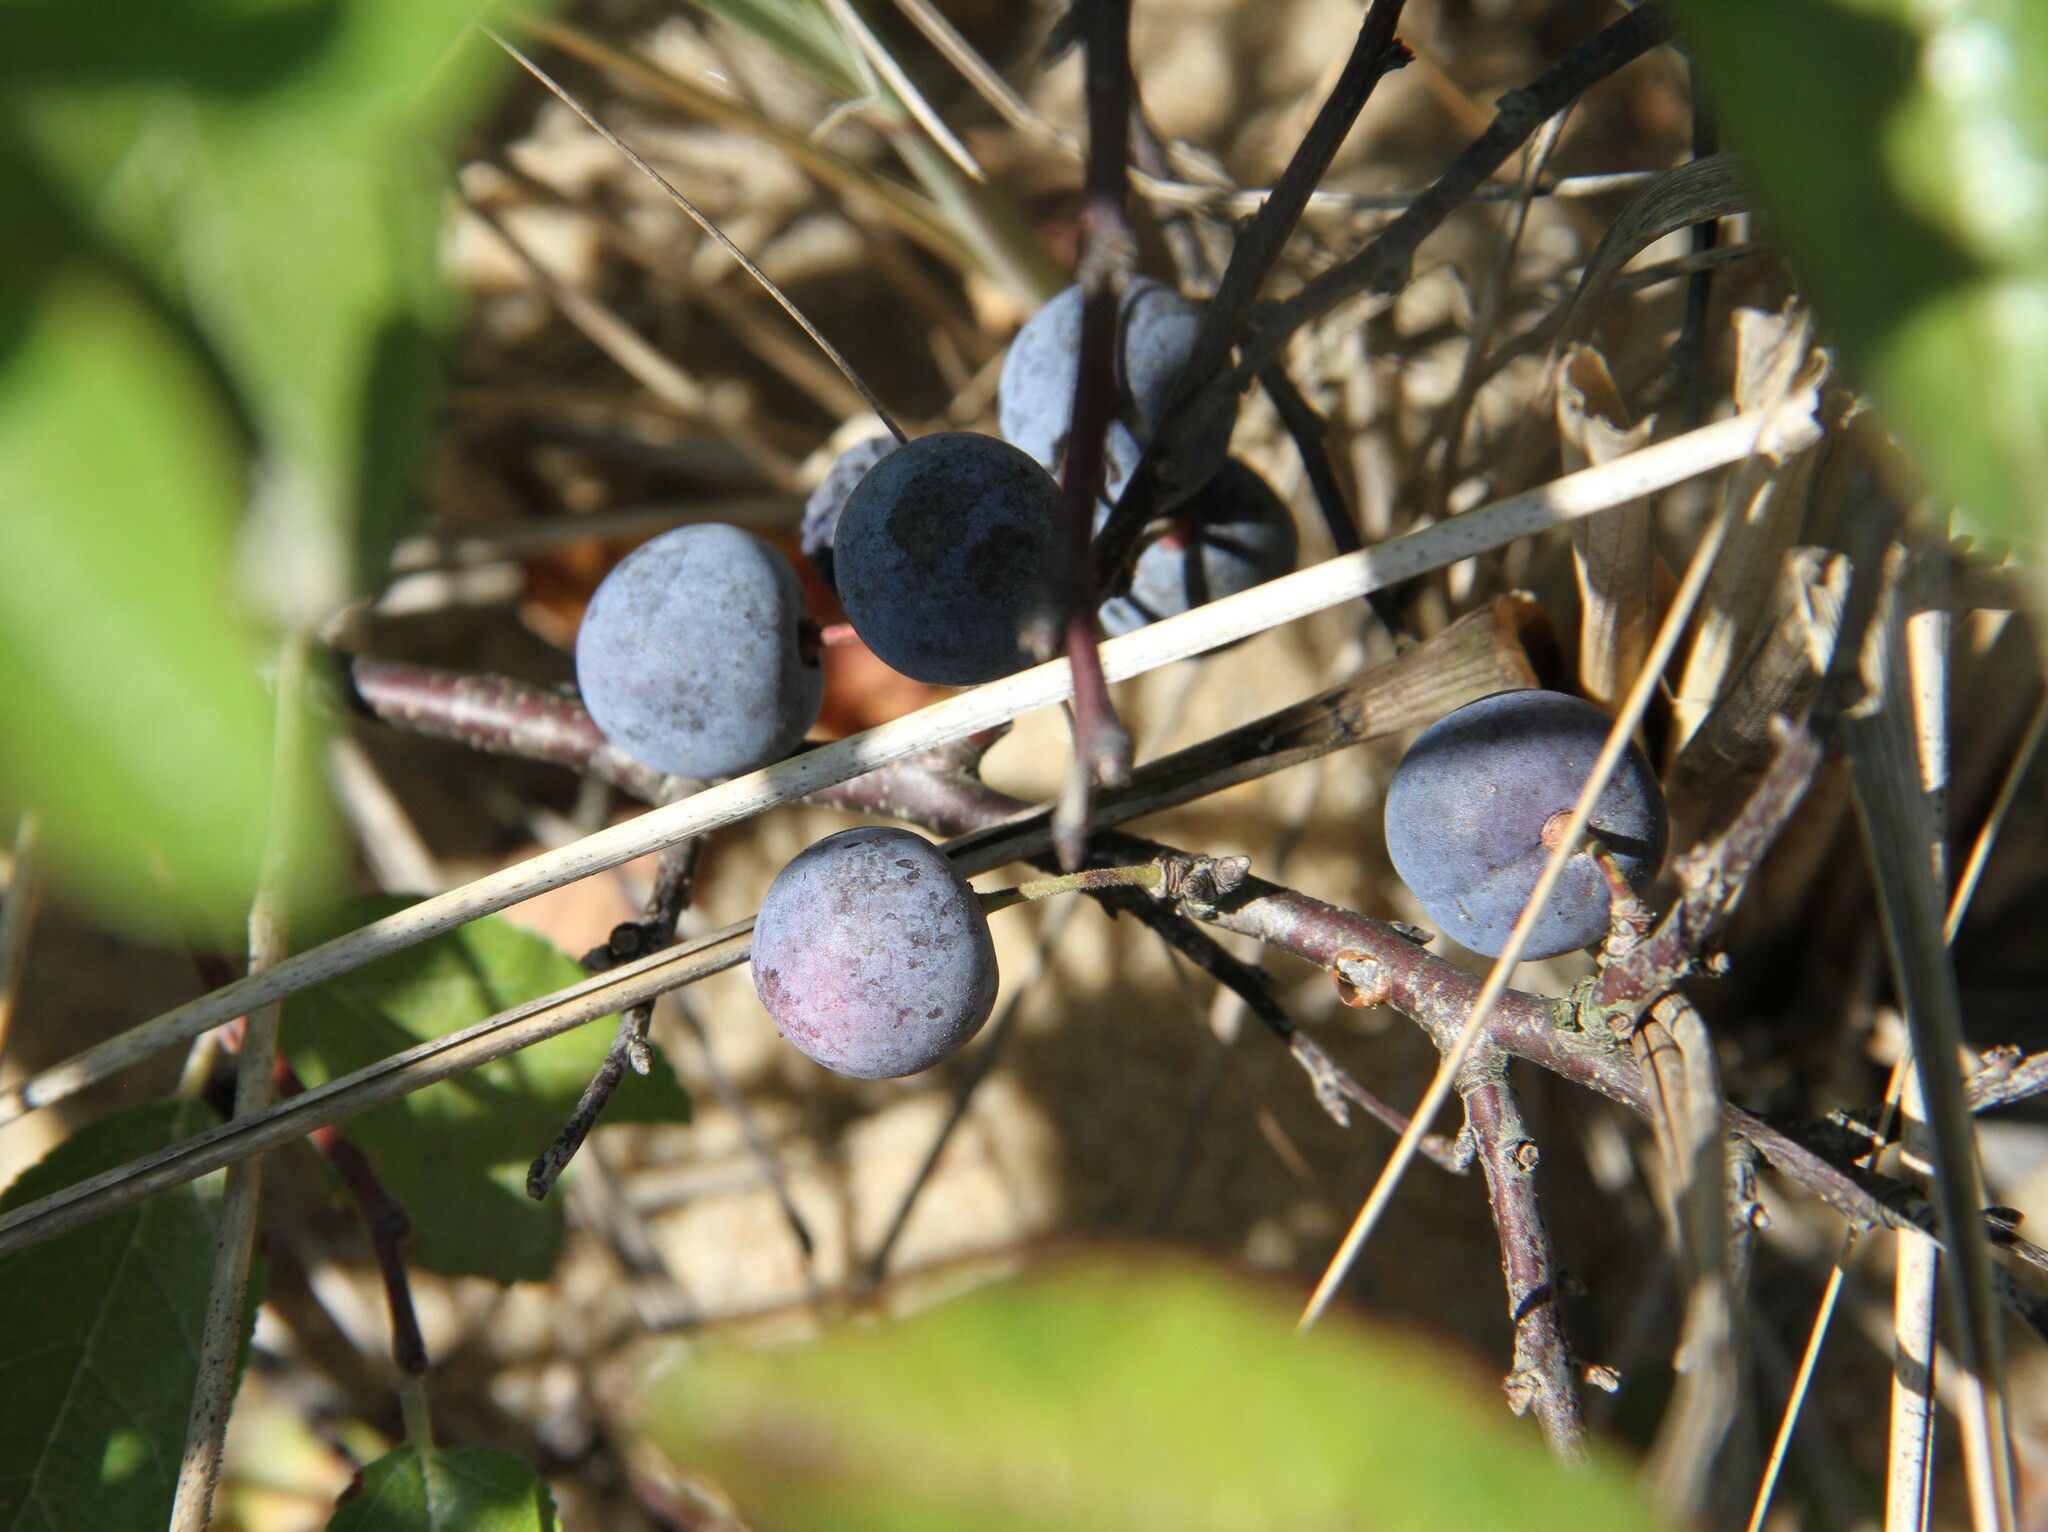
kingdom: Plantae
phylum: Tracheophyta
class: Magnoliopsida
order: Rosales
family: Rosaceae
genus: Prunus
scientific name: Prunus maritima
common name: Beach plum
